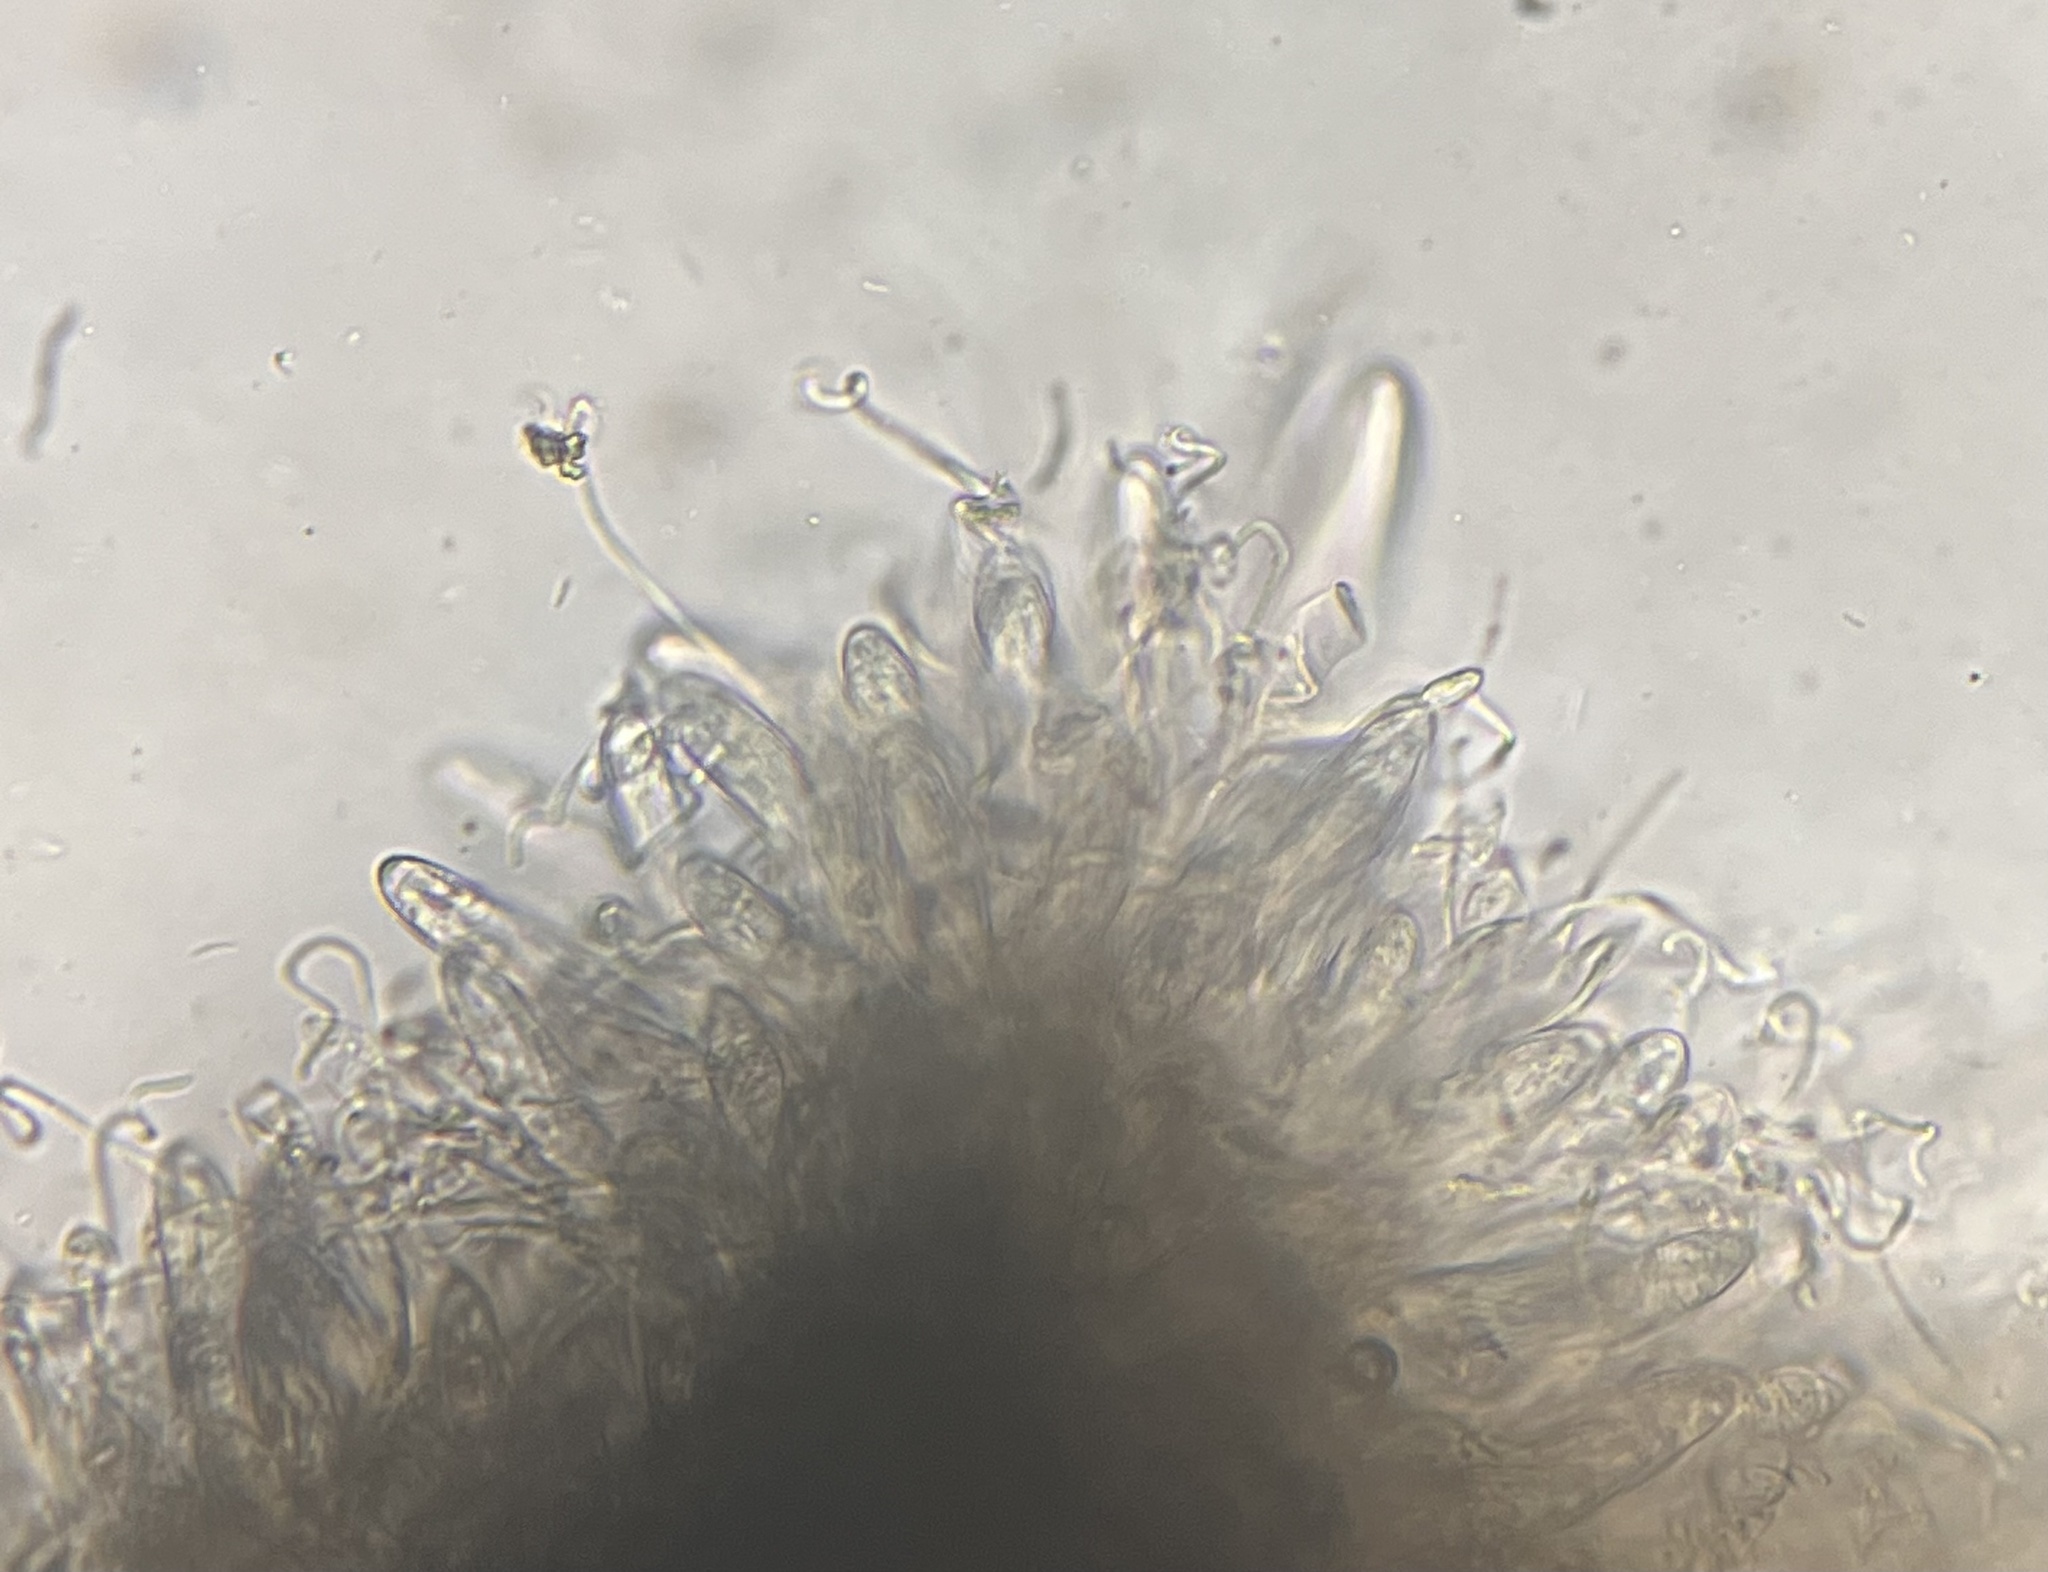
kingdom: Fungi
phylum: Ascomycota
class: Leotiomycetes
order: Rhytismatales
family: Rhytismataceae
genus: Colpoma
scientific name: Colpoma quercinum
